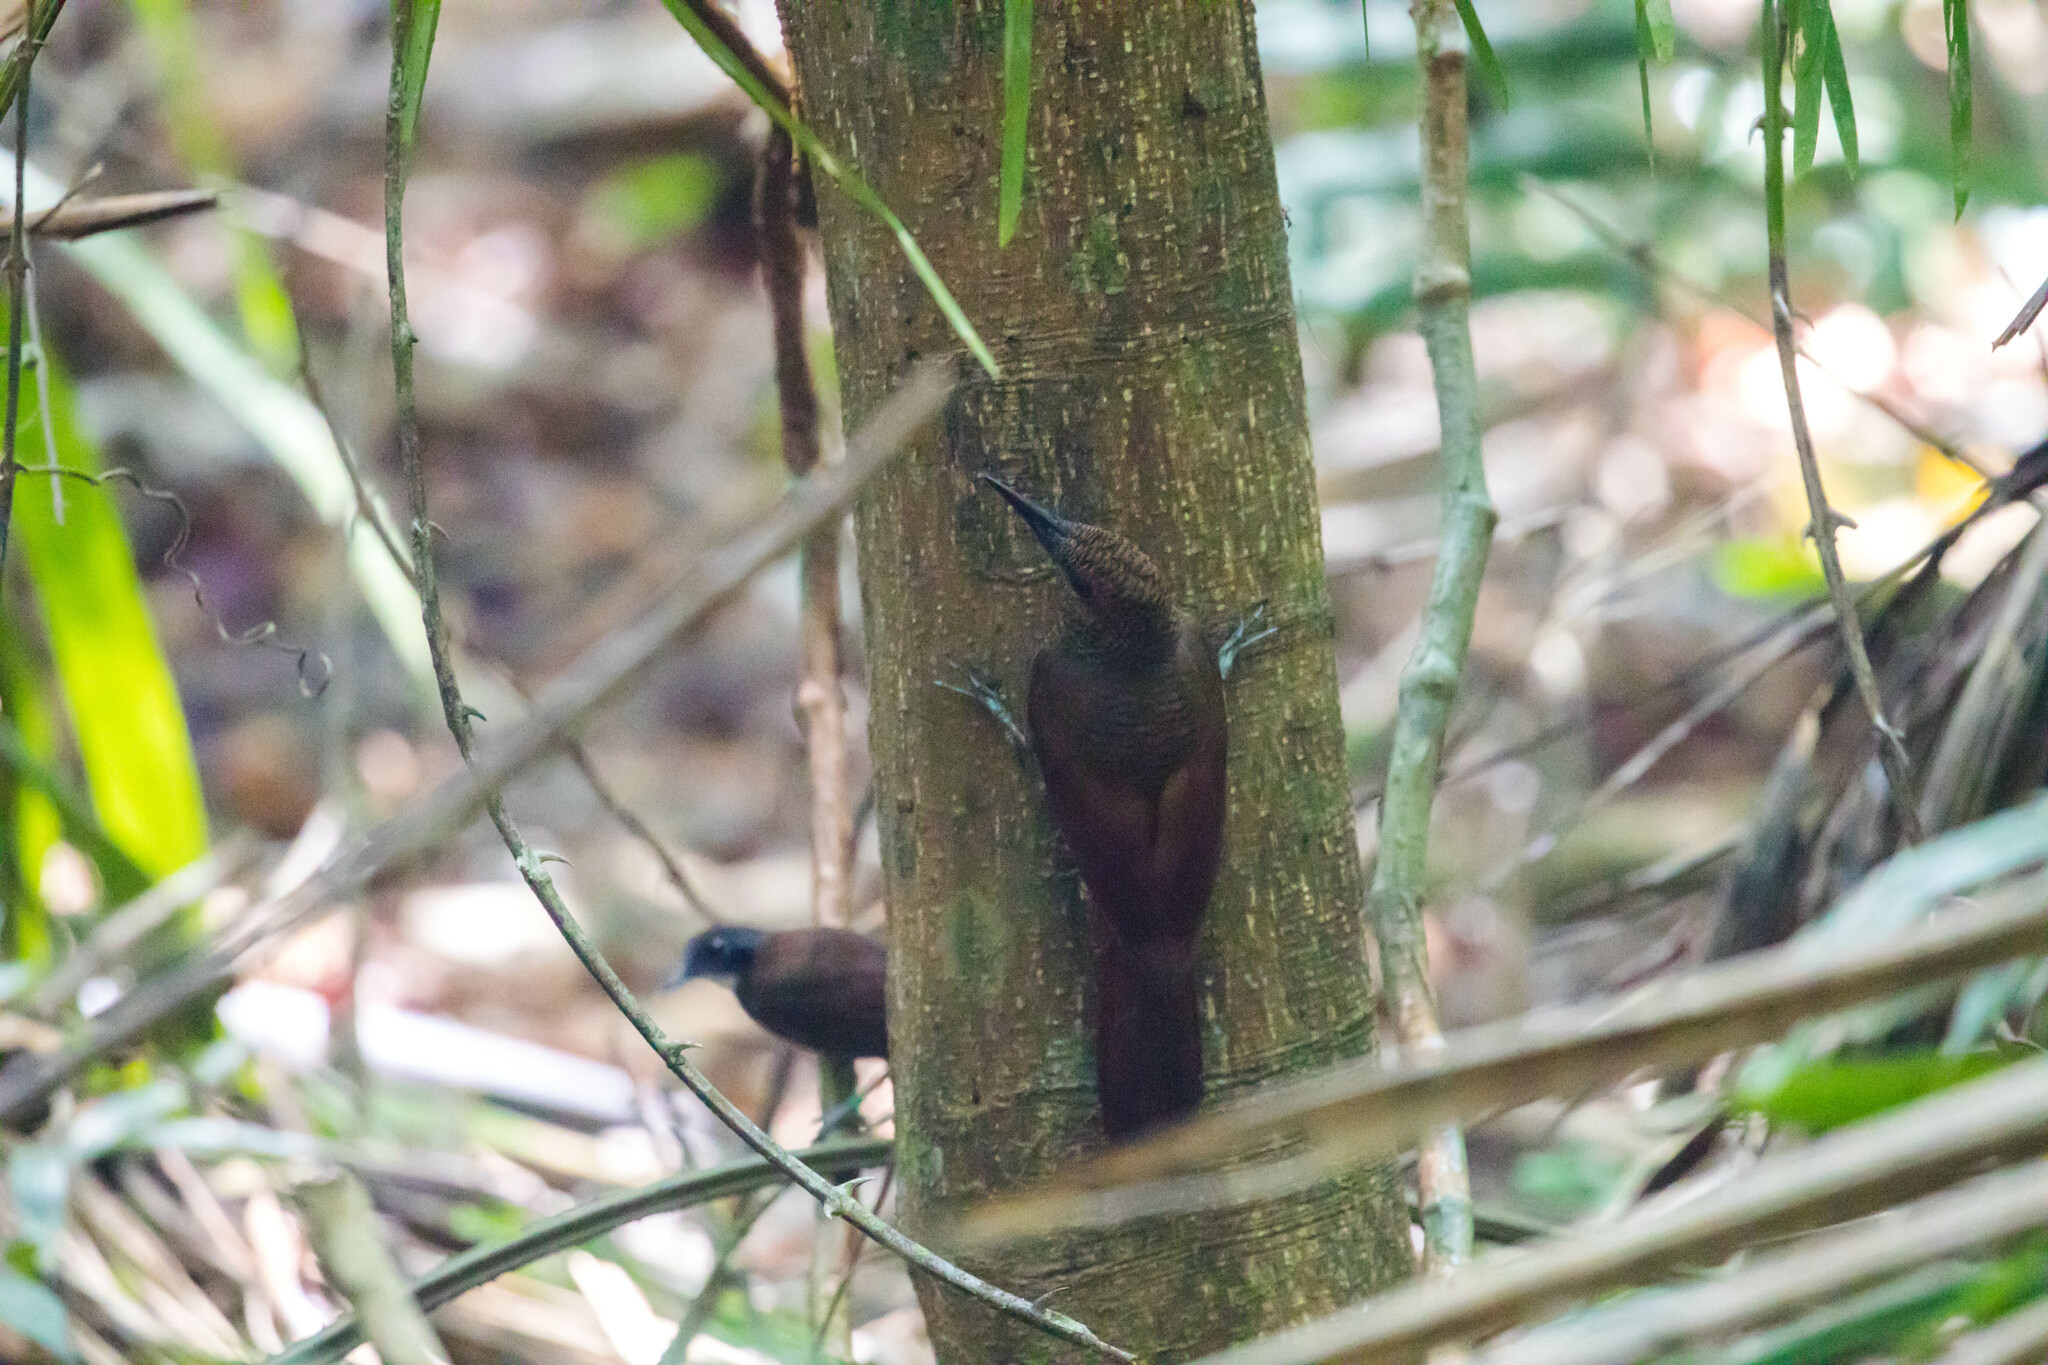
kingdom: Animalia
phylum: Chordata
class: Aves
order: Passeriformes
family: Furnariidae
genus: Dendrocolaptes
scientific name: Dendrocolaptes sanctithomae
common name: Northern barred-woodcreeper
